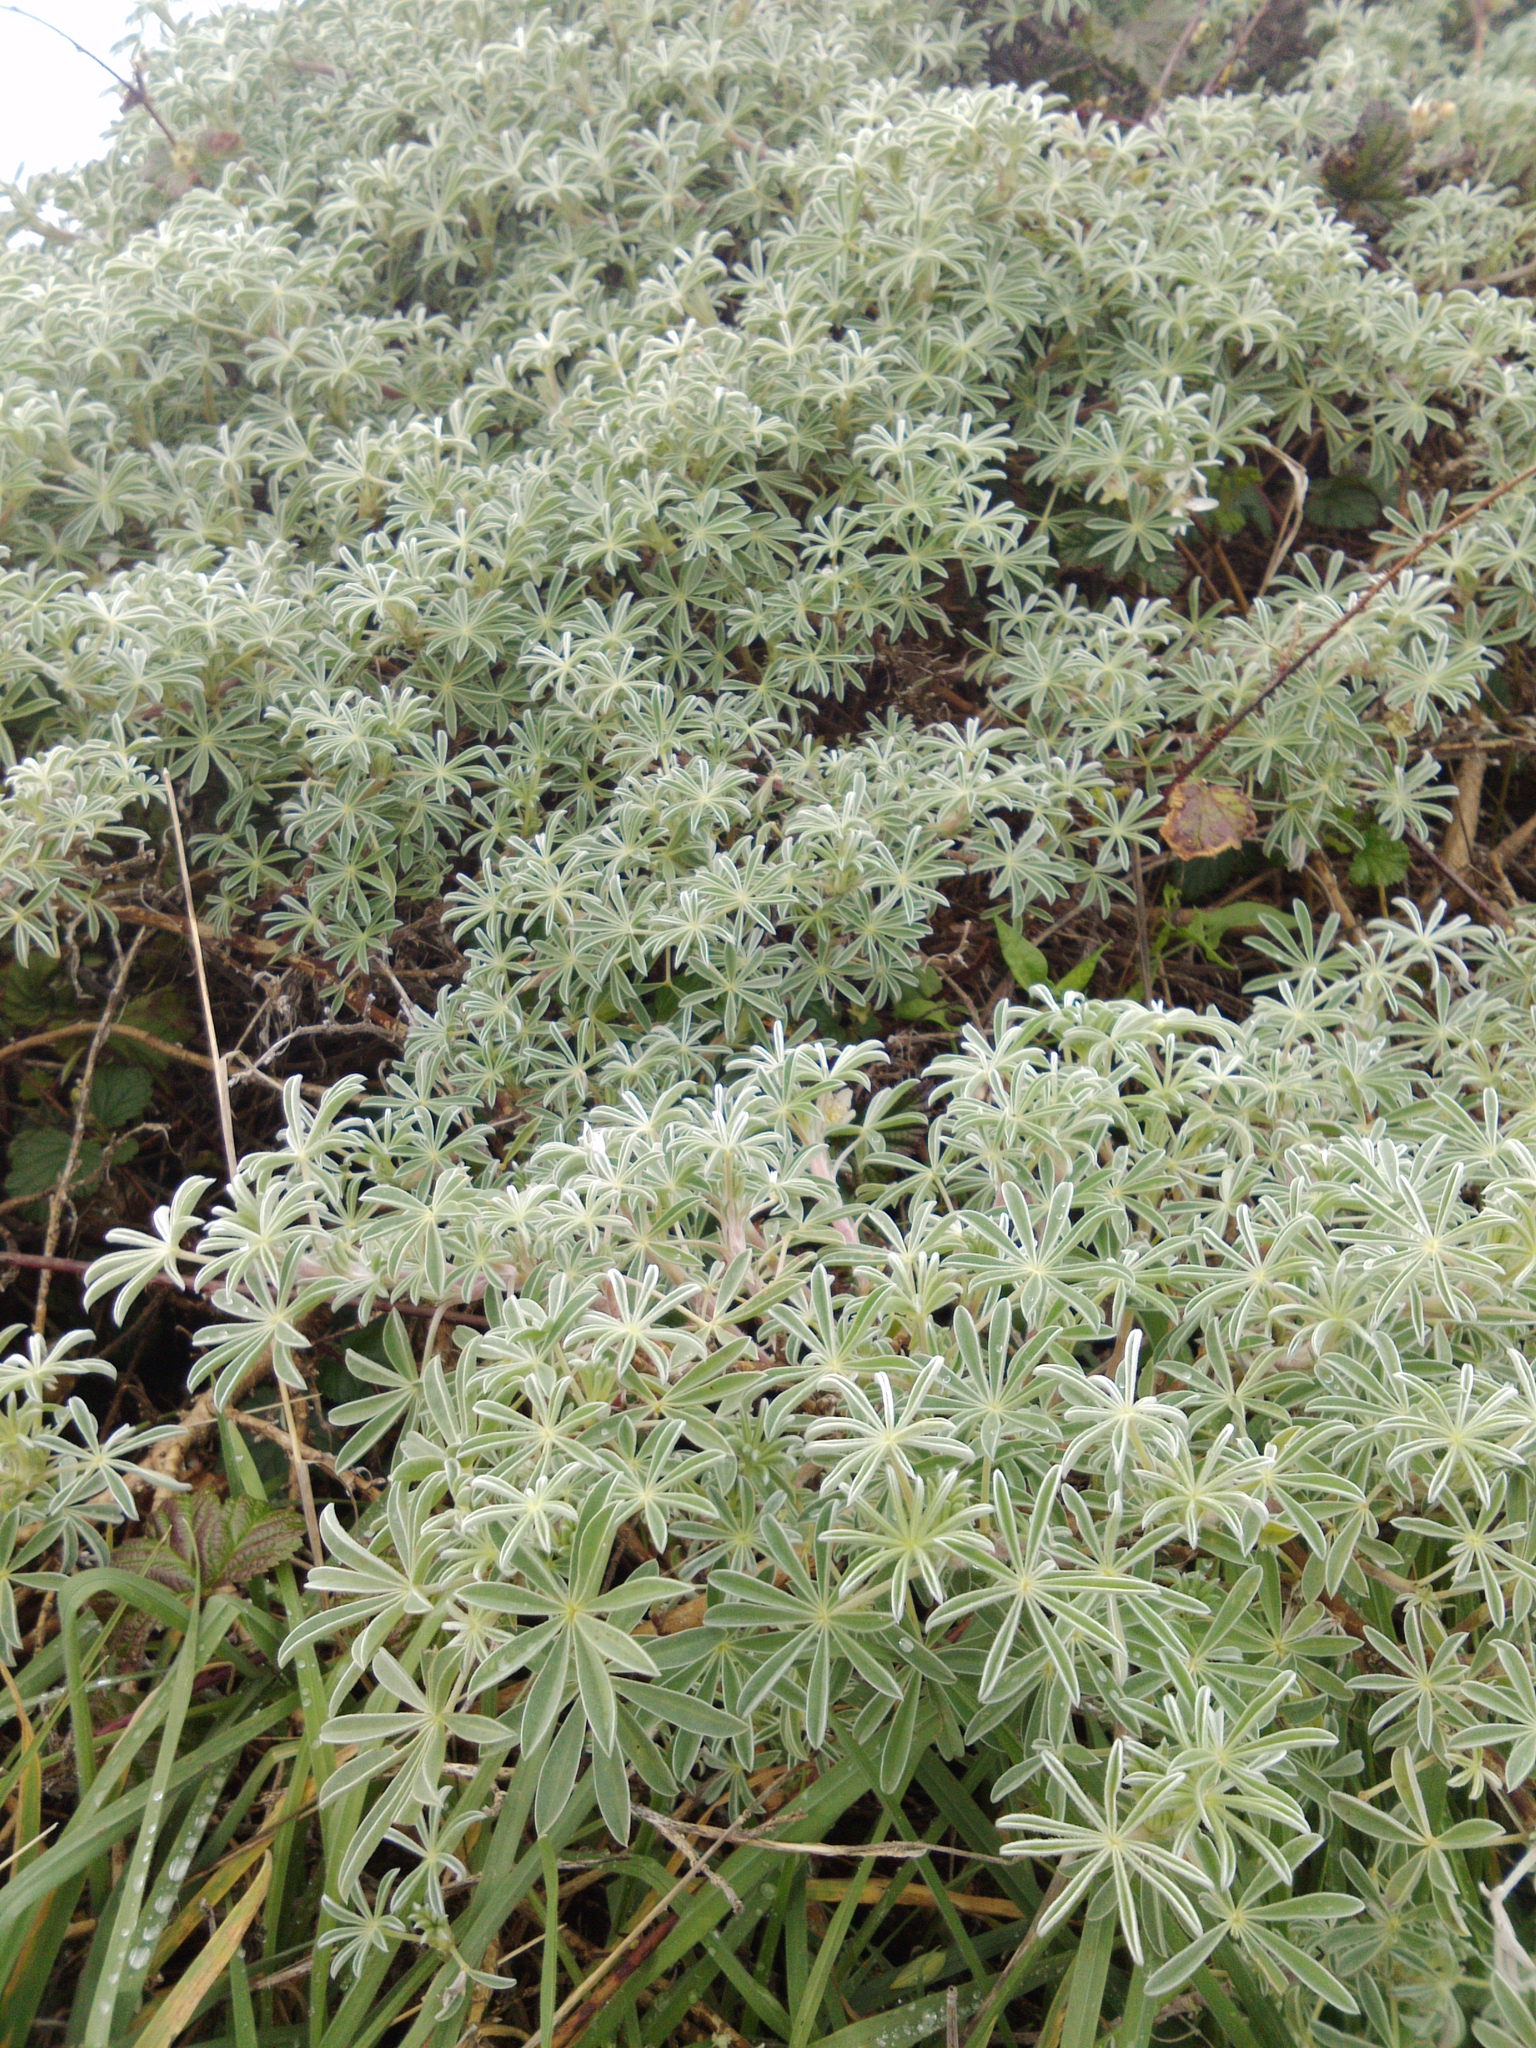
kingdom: Plantae
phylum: Tracheophyta
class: Magnoliopsida
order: Fabales
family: Fabaceae
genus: Lupinus
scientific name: Lupinus arboreus
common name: Yellow bush lupine
